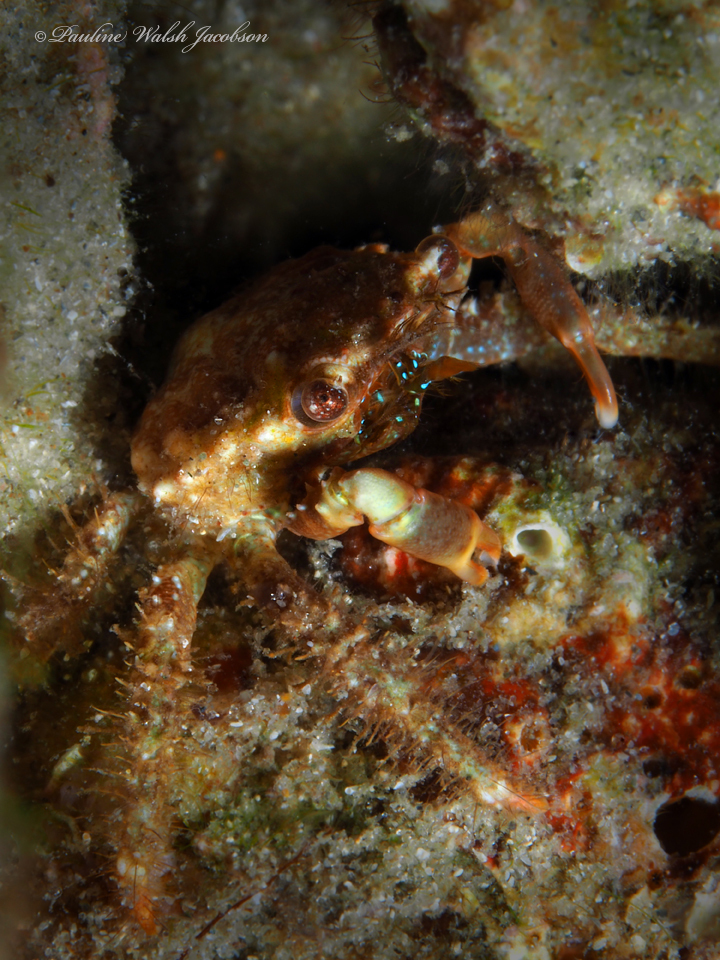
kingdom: Animalia
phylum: Arthropoda
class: Malacostraca
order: Decapoda
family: Mithracidae
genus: Mithraculus
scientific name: Mithraculus forceps
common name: Red-ridged clinging crab
